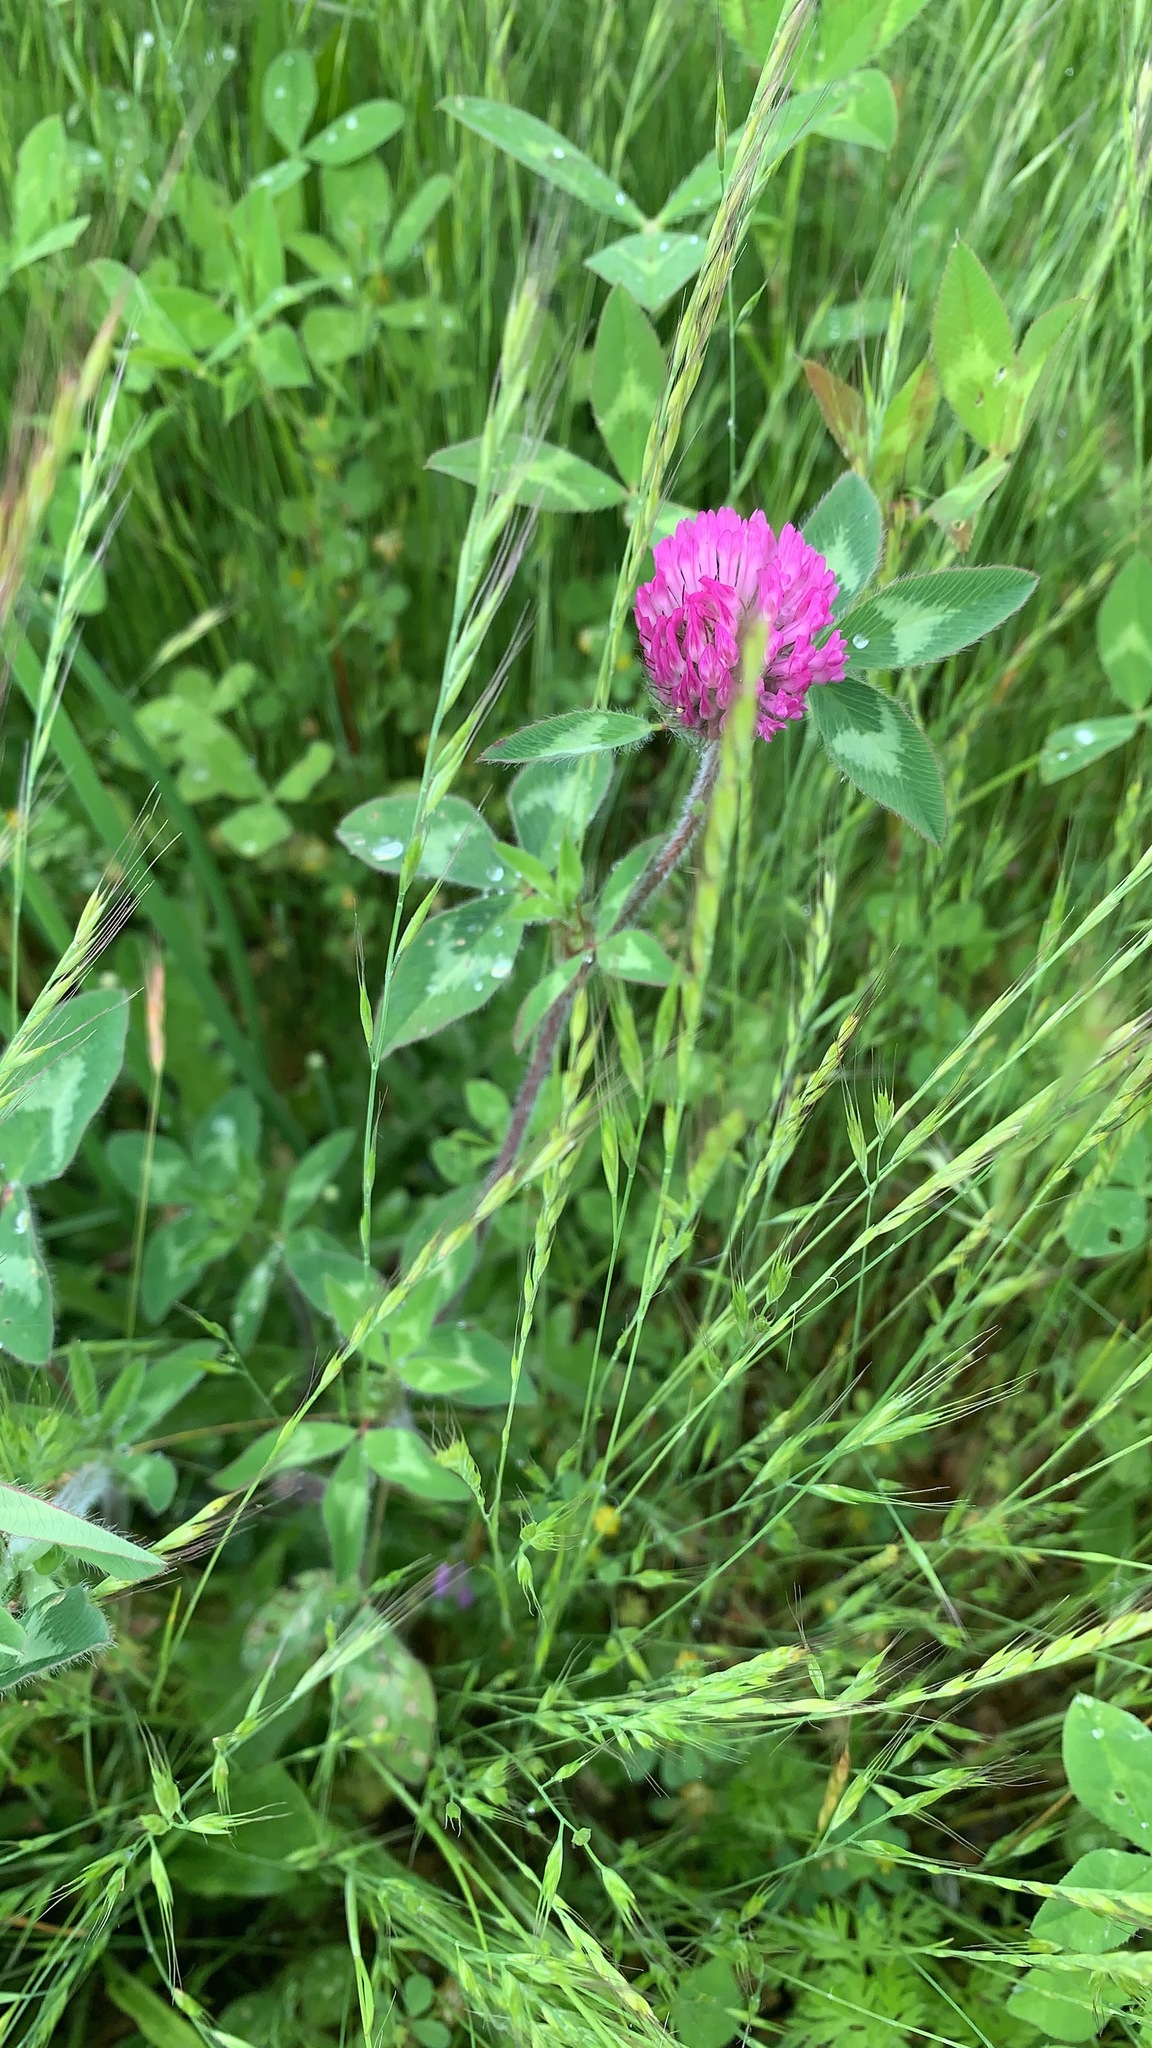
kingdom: Plantae
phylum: Tracheophyta
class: Magnoliopsida
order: Fabales
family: Fabaceae
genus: Trifolium
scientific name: Trifolium pratense
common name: Red clover
